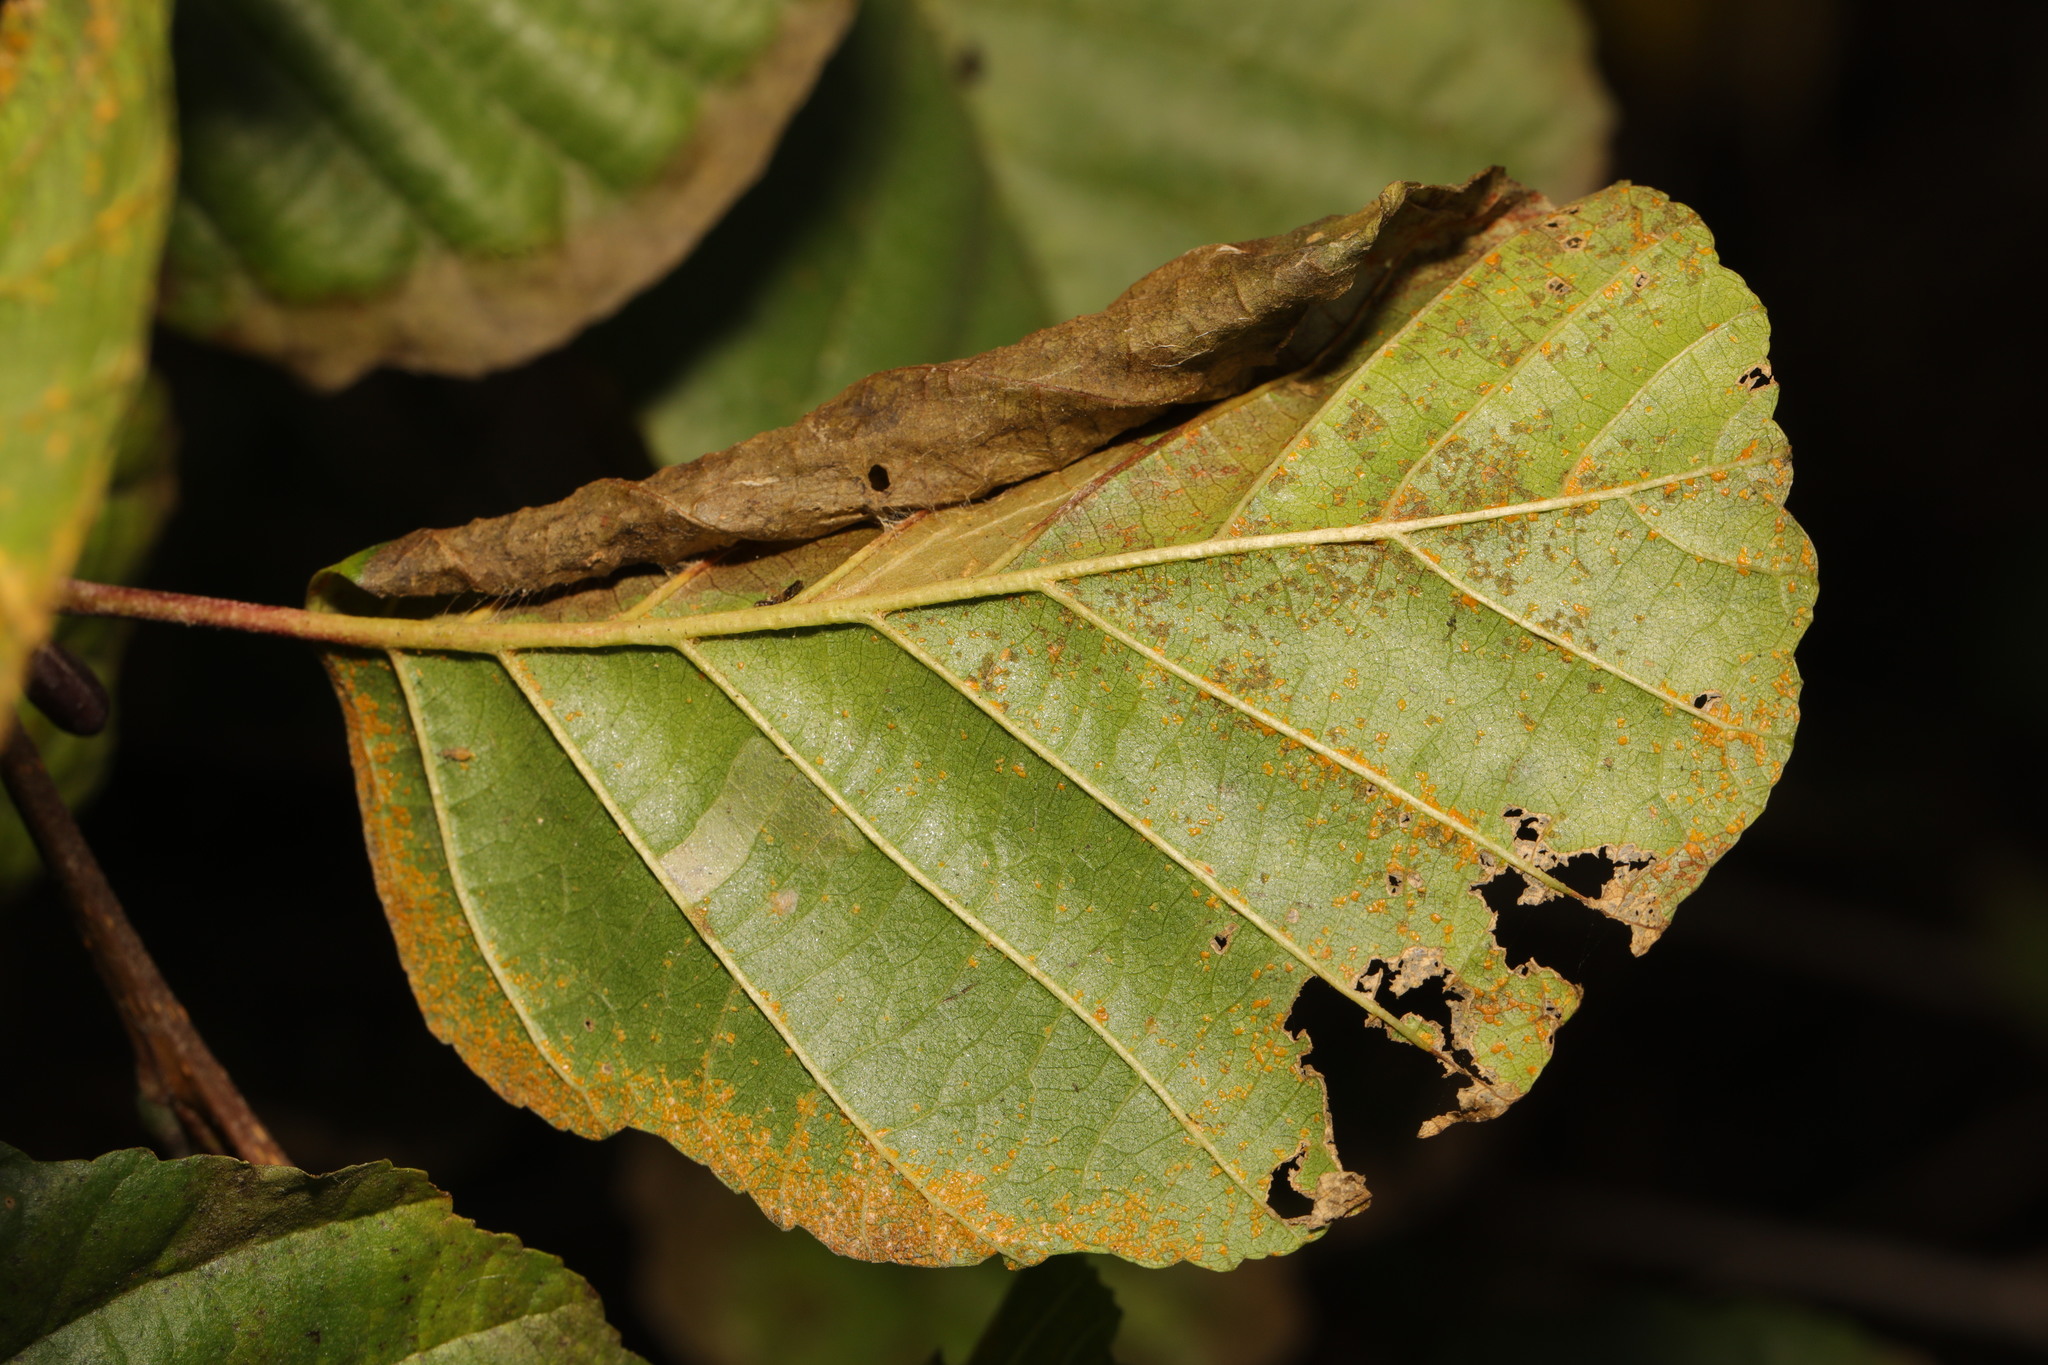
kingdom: Animalia
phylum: Arthropoda
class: Insecta
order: Lepidoptera
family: Gracillariidae
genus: Caloptilia
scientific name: Caloptilia elongella
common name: Pale red slender
